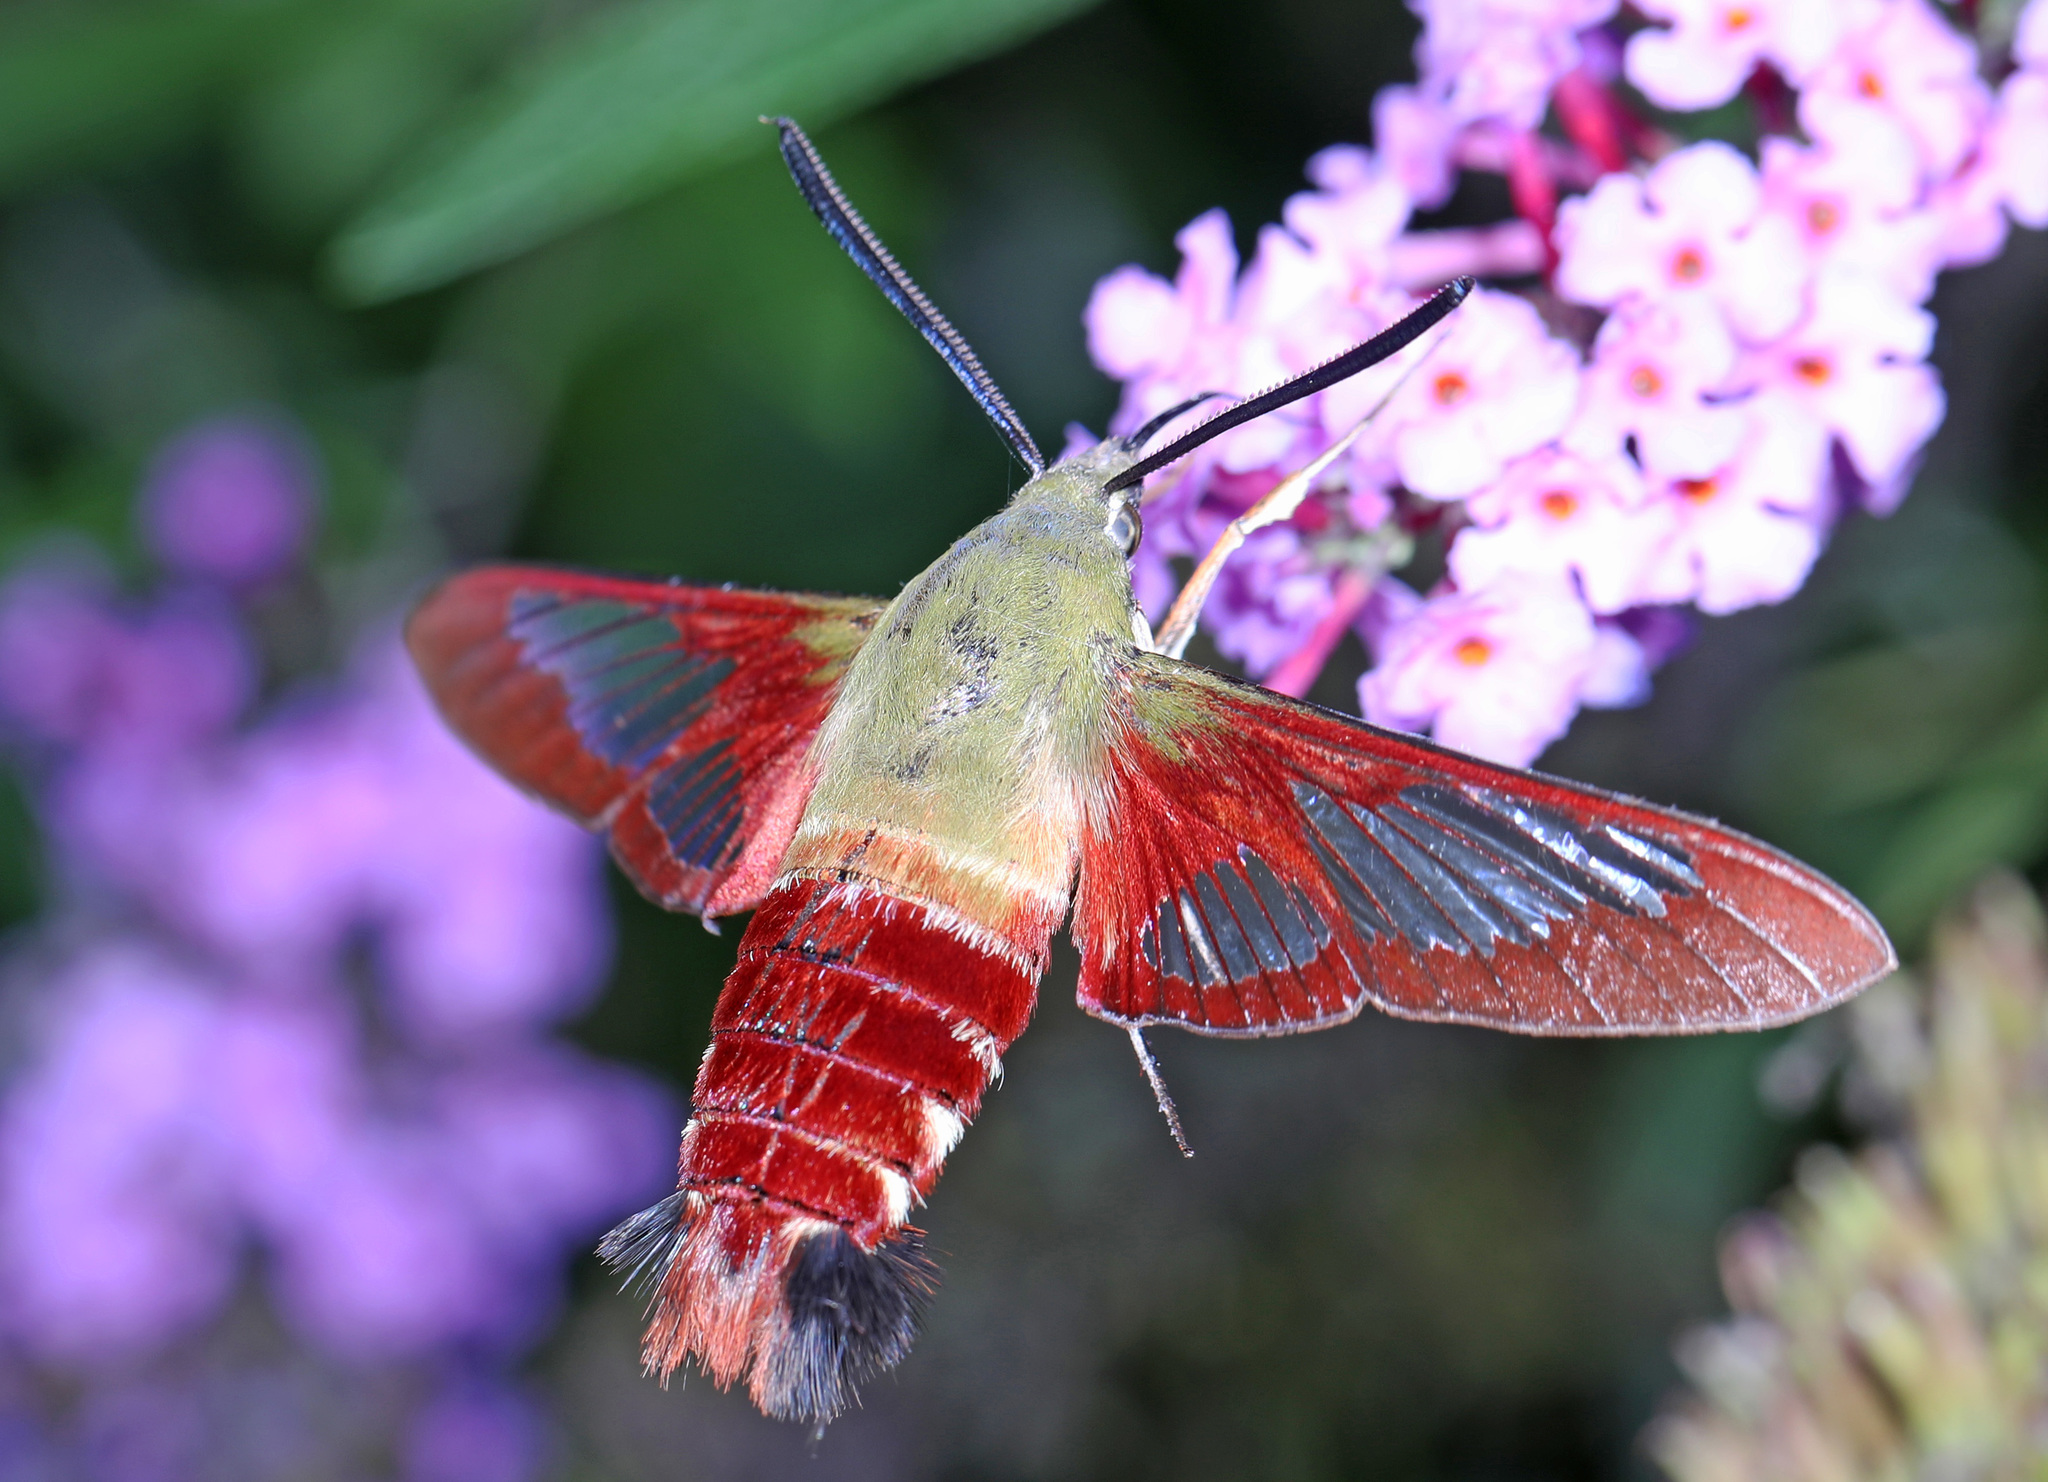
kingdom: Animalia
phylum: Arthropoda
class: Insecta
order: Lepidoptera
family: Sphingidae
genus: Hemaris
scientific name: Hemaris thysbe
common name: Common clear-wing
